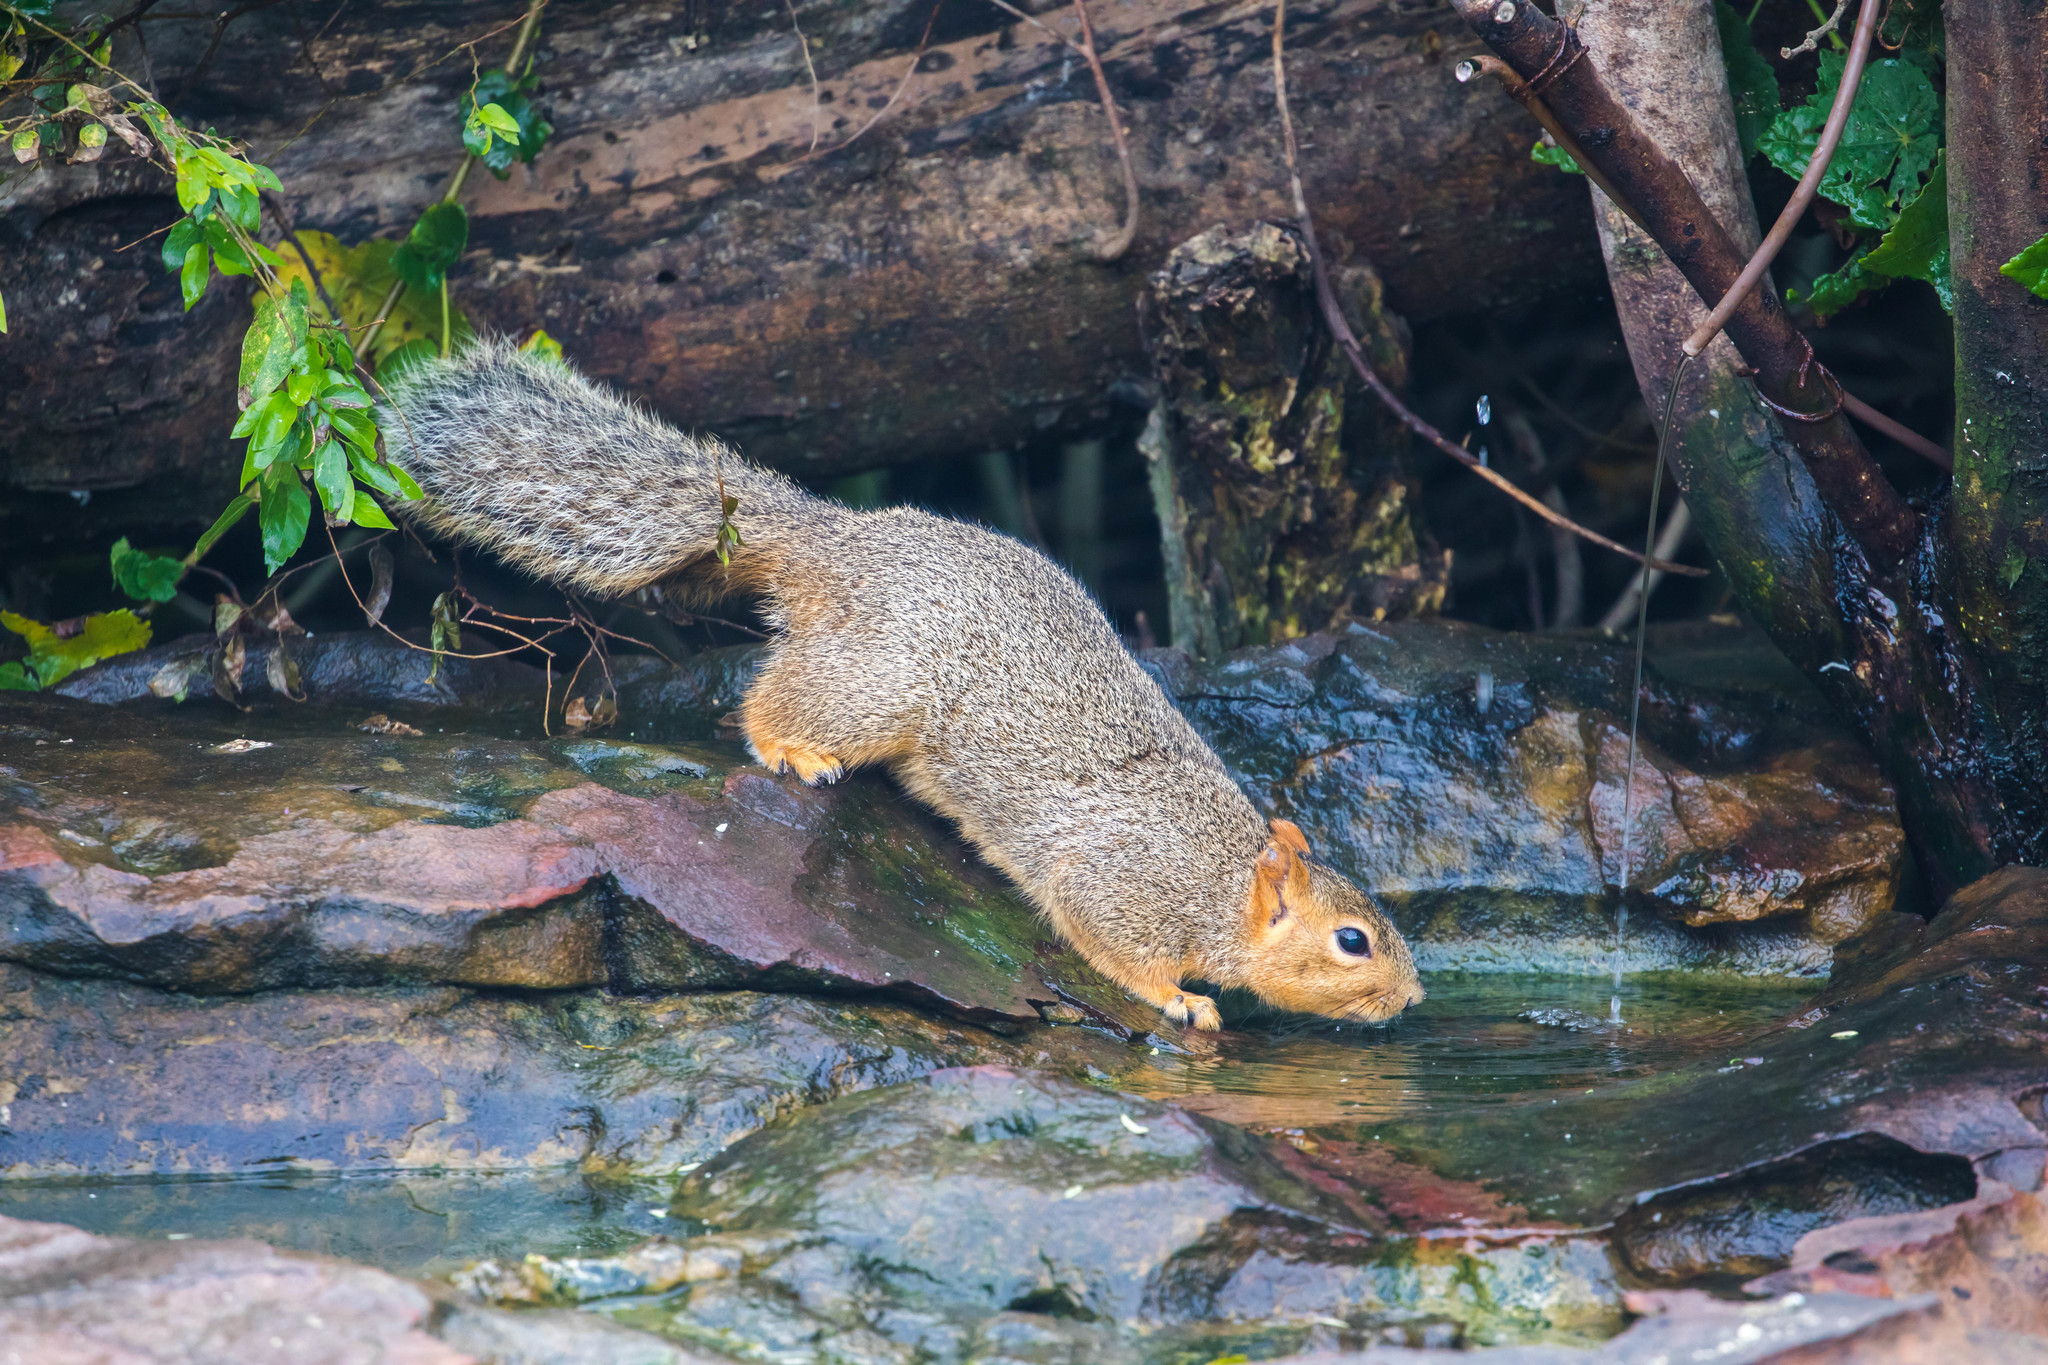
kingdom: Animalia
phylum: Chordata
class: Mammalia
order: Rodentia
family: Sciuridae
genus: Sciurus
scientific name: Sciurus niger
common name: Fox squirrel
